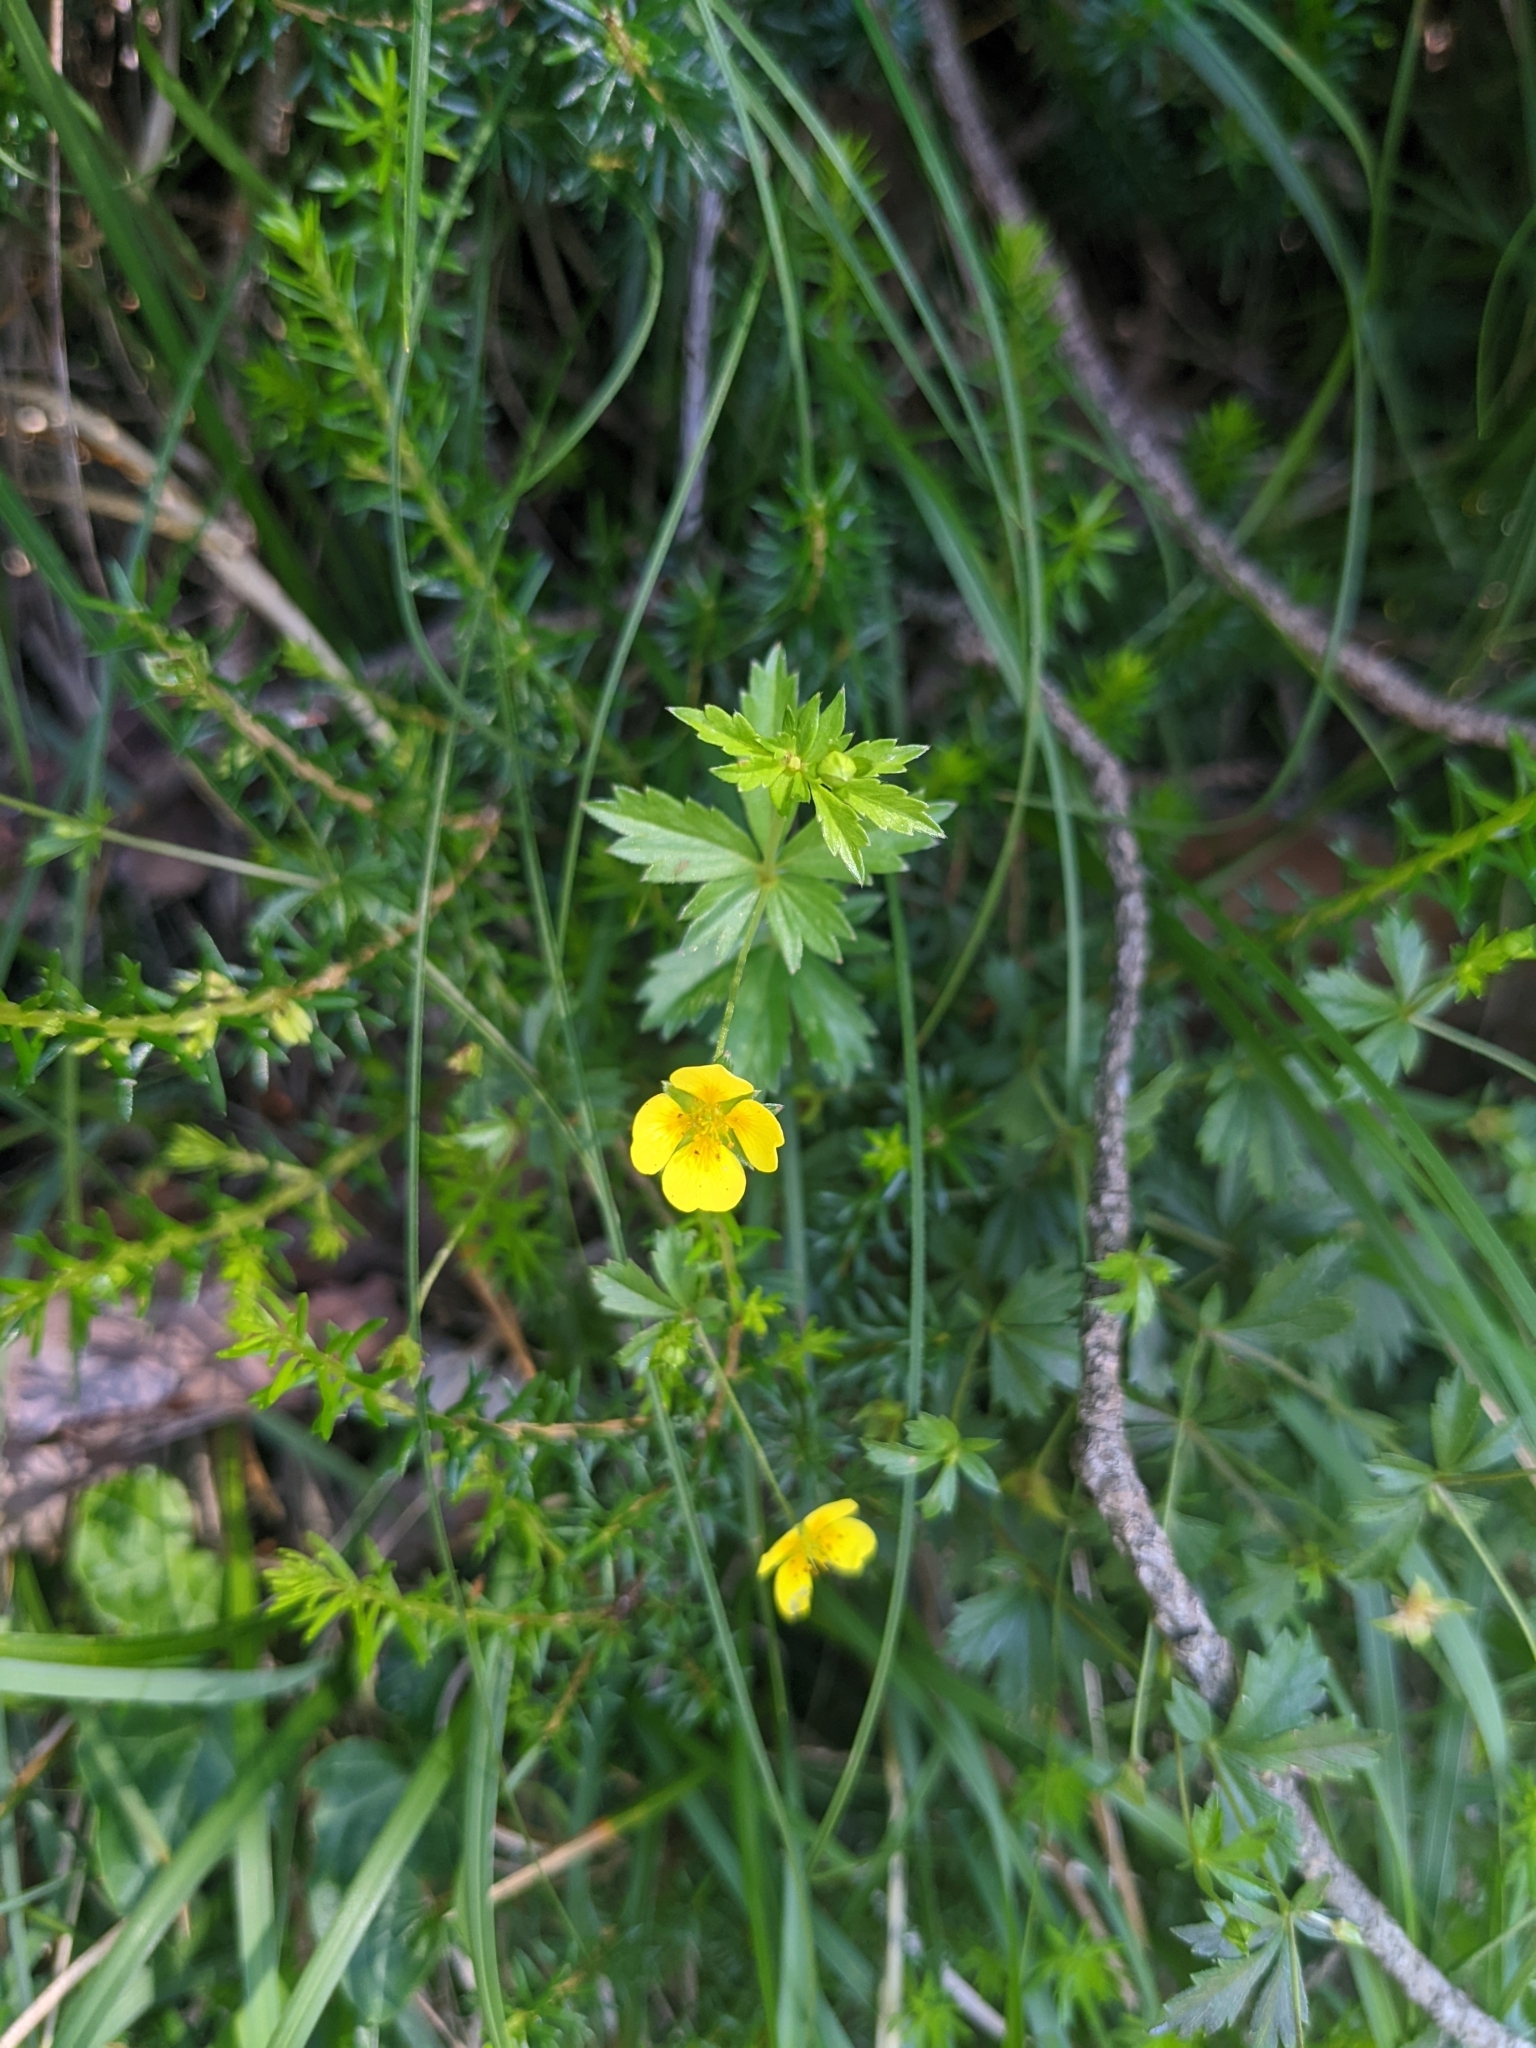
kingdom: Plantae
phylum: Tracheophyta
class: Magnoliopsida
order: Rosales
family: Rosaceae
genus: Potentilla
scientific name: Potentilla erecta
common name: Tormentil
